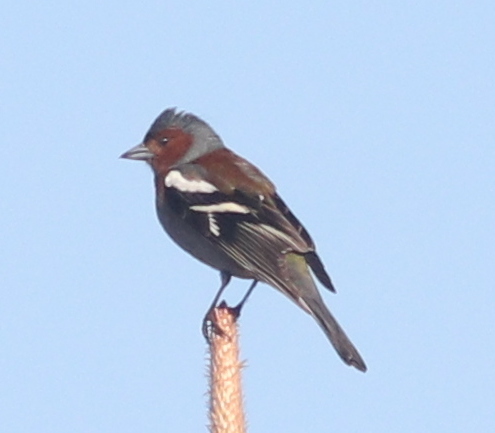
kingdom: Animalia
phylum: Chordata
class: Aves
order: Passeriformes
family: Fringillidae
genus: Fringilla
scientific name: Fringilla coelebs
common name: Common chaffinch
